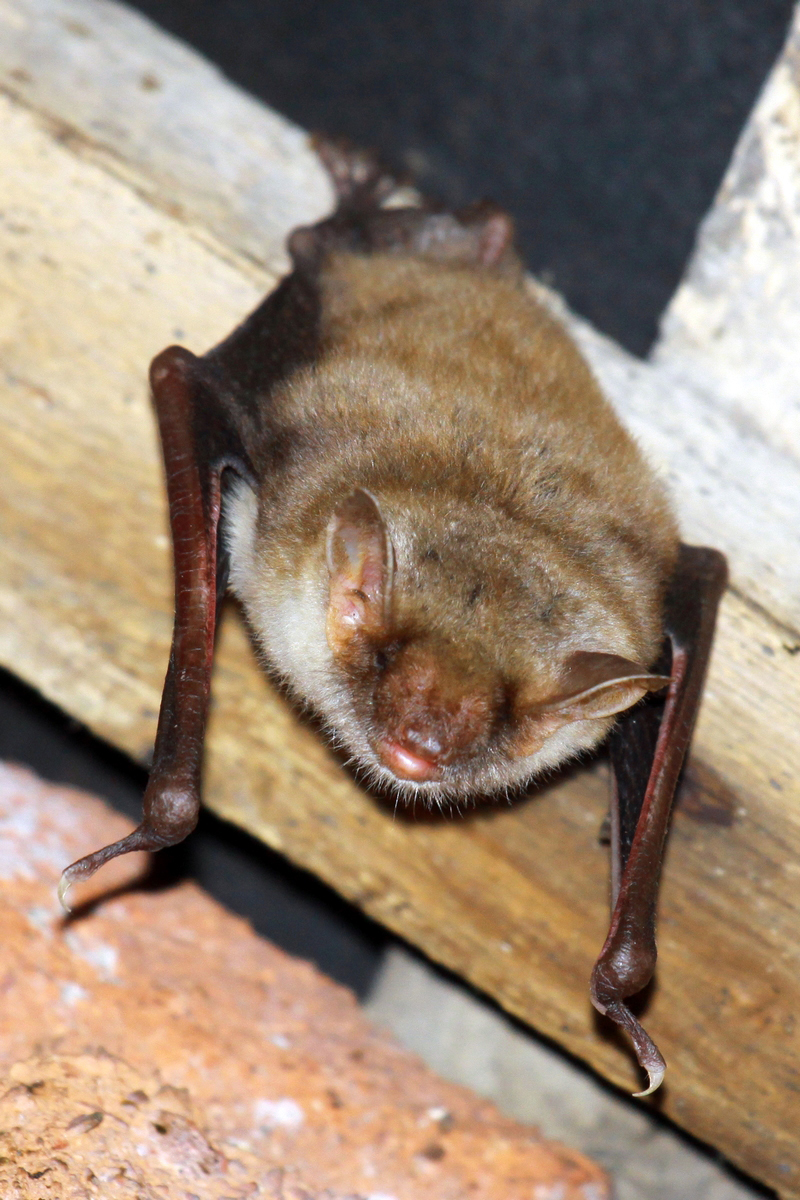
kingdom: Animalia
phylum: Chordata
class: Mammalia
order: Chiroptera
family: Vespertilionidae
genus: Myotis
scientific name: Myotis myotis
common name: Greater mouse-eared bat
